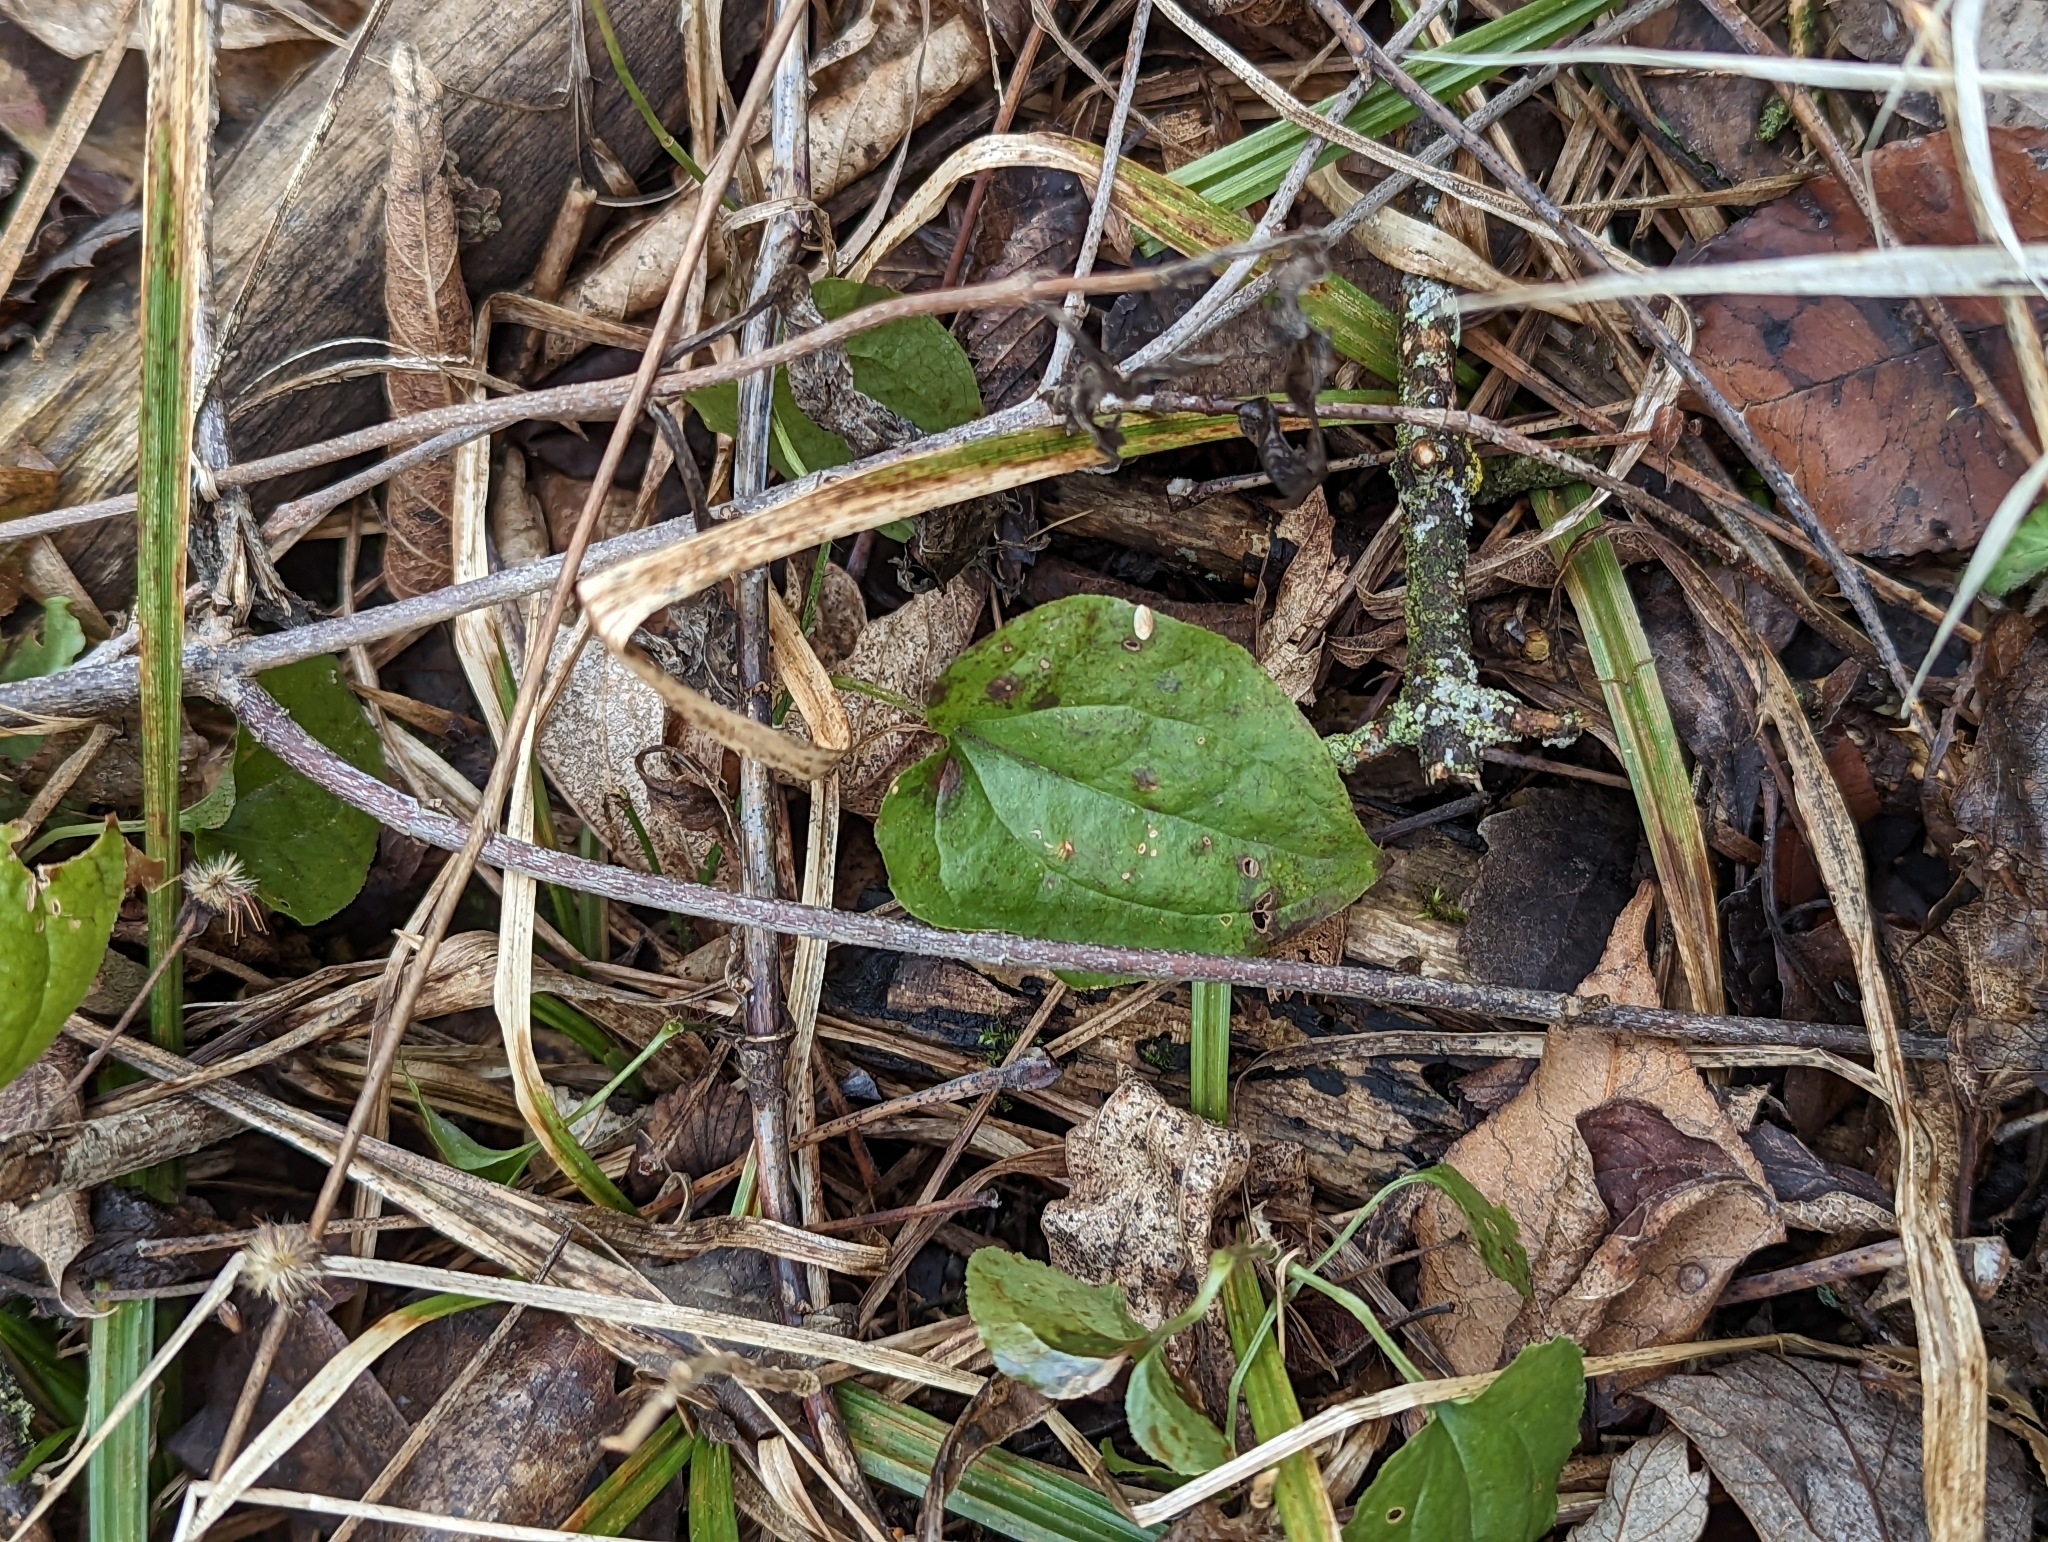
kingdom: Plantae
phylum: Tracheophyta
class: Liliopsida
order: Liliales
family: Smilacaceae
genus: Smilax
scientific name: Smilax tamnoides
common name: Hellfetter
